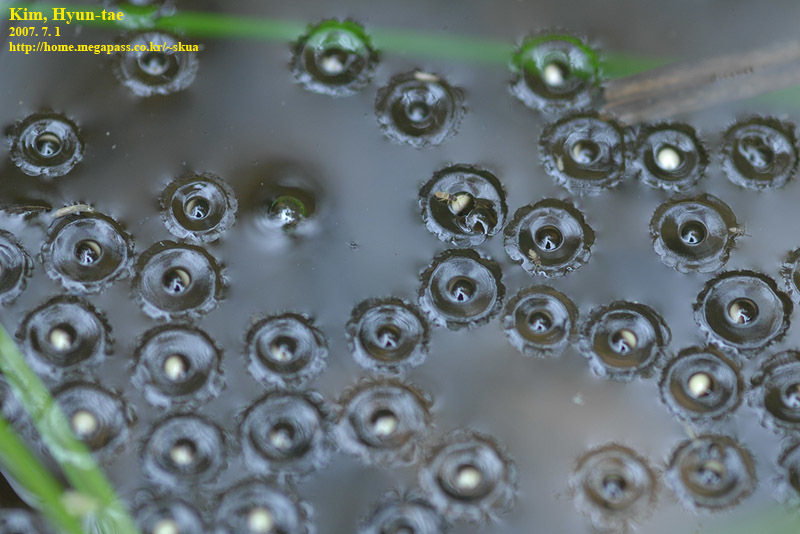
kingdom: Animalia
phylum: Chordata
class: Amphibia
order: Anura
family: Microhylidae
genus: Kaloula
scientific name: Kaloula borealis
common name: Boreal digging frog
